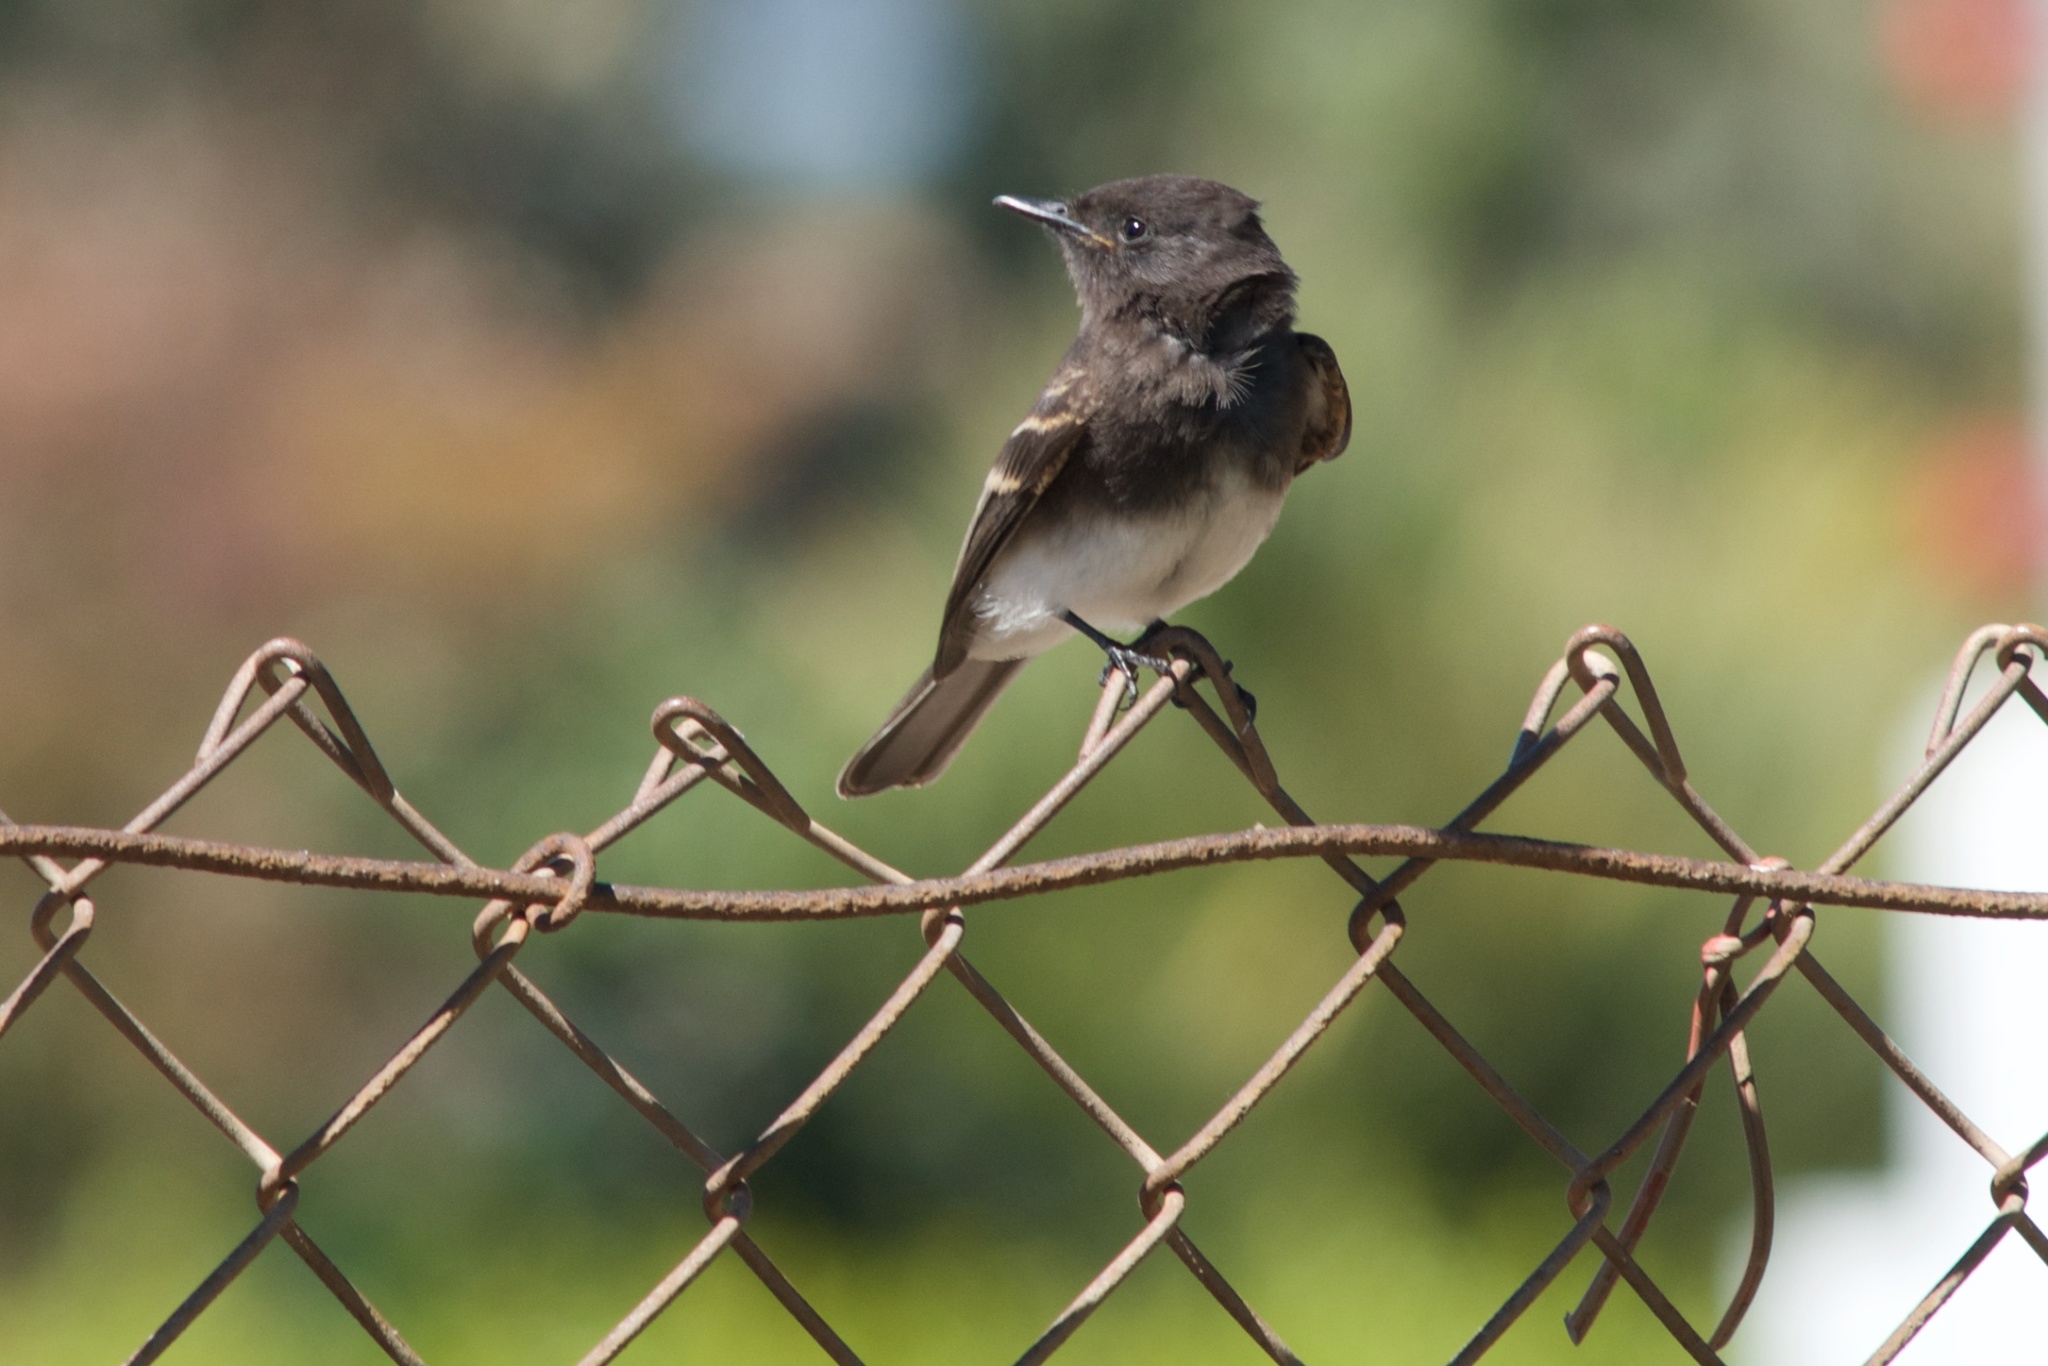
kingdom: Animalia
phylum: Chordata
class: Aves
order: Passeriformes
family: Tyrannidae
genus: Sayornis
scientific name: Sayornis nigricans
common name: Black phoebe
